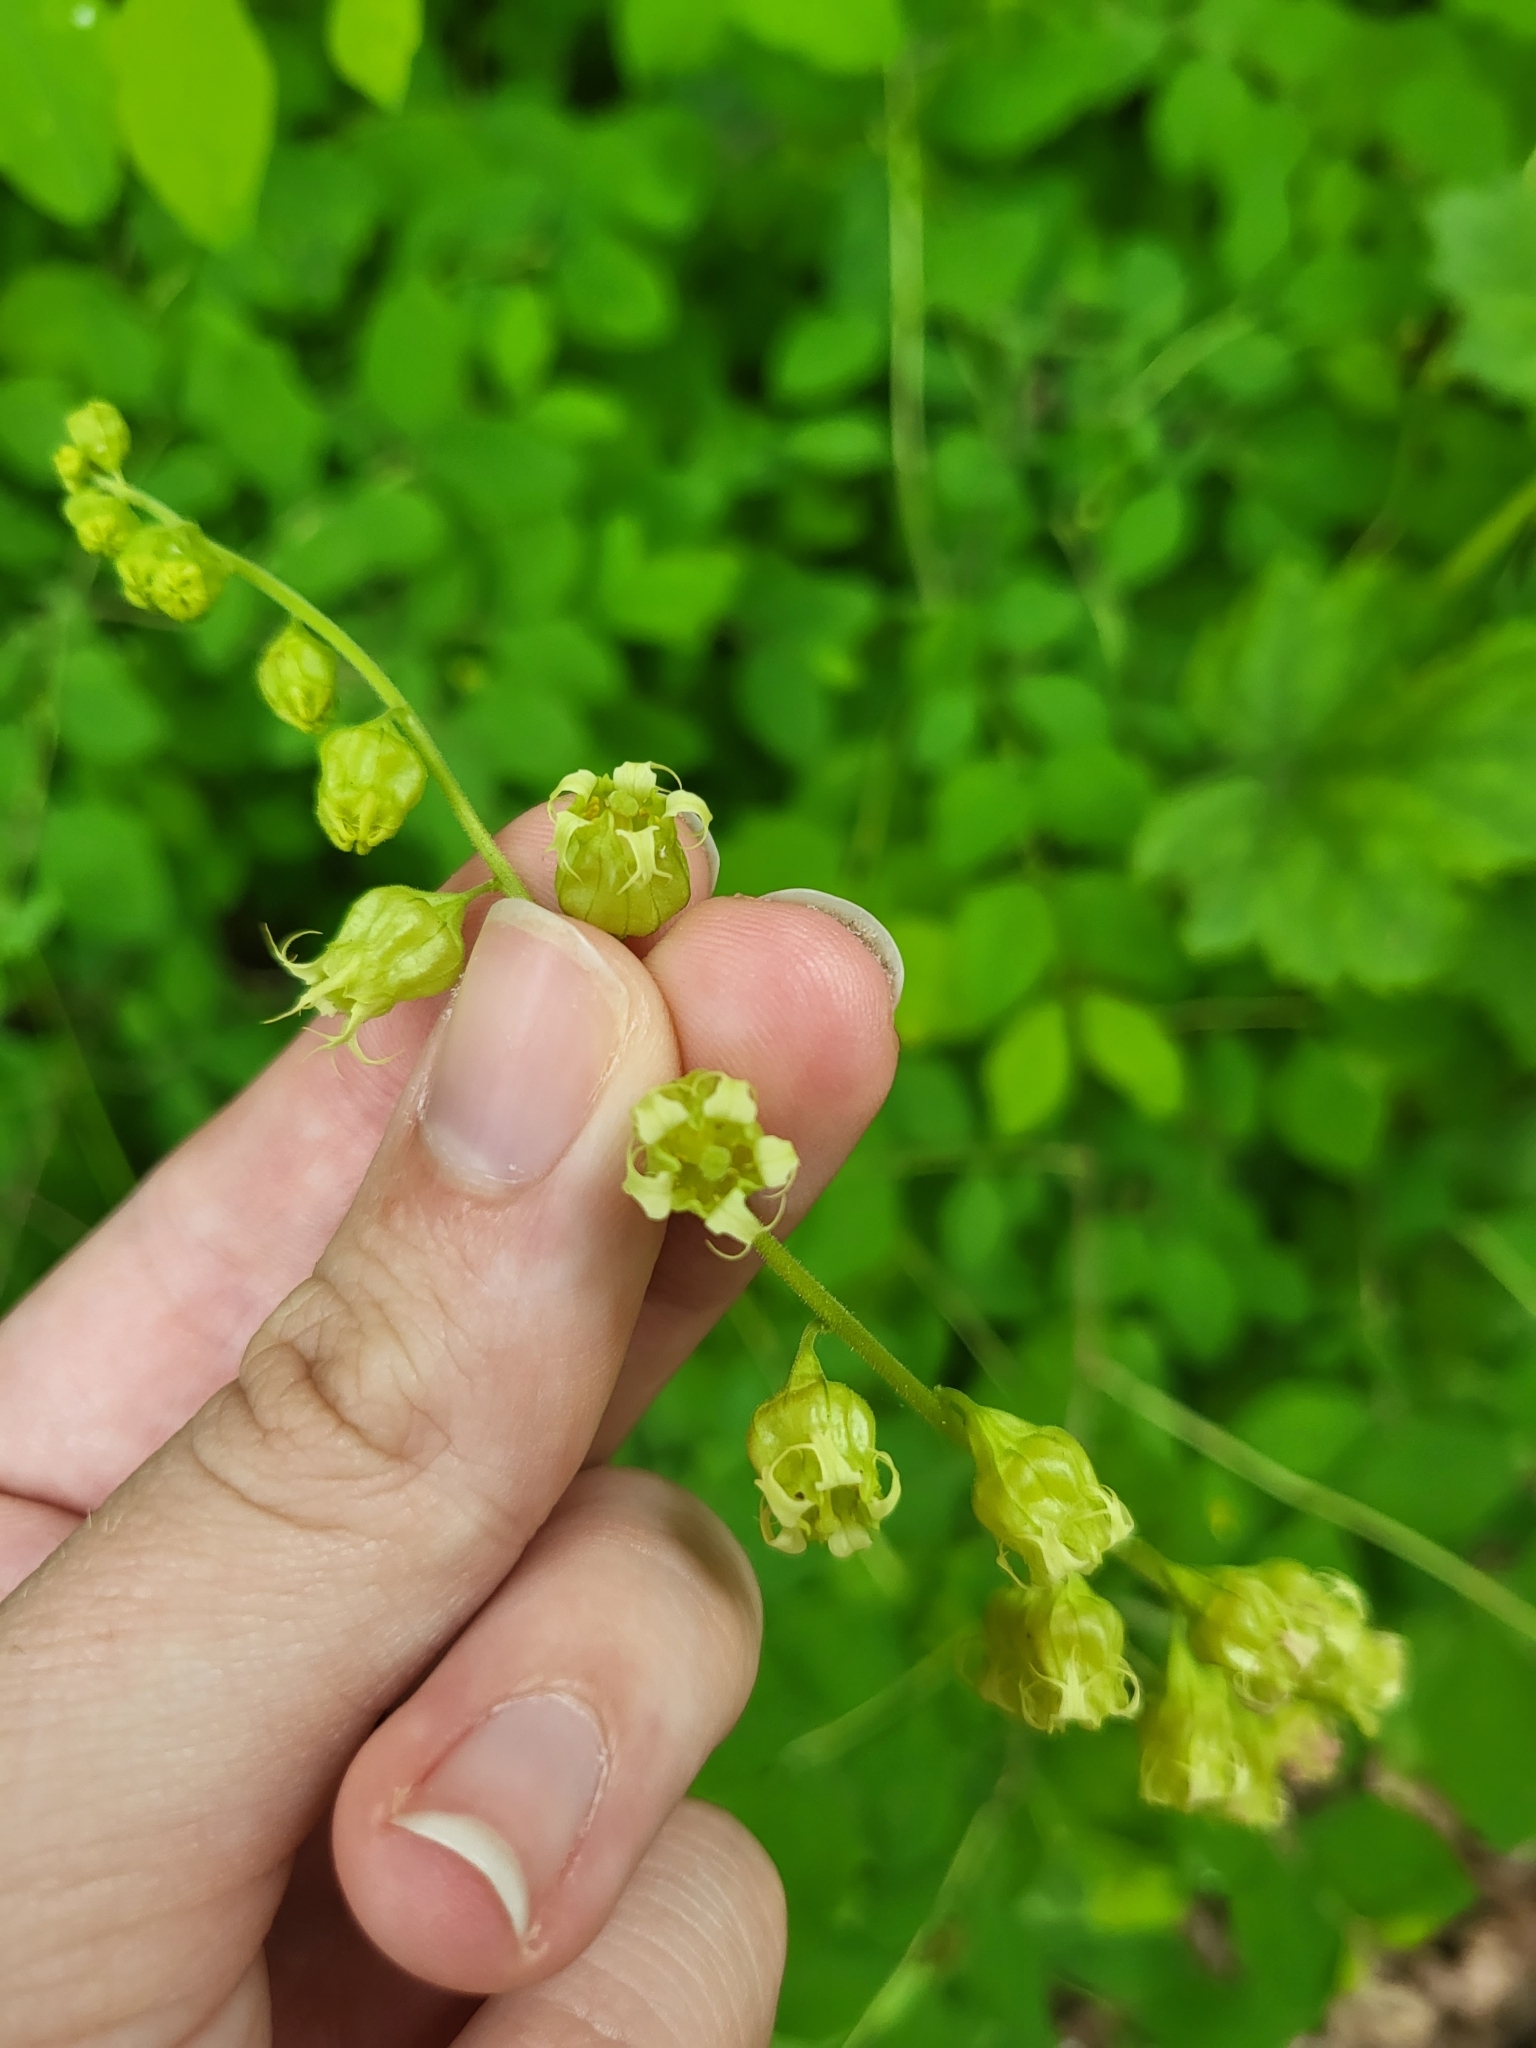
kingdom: Plantae
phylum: Tracheophyta
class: Magnoliopsida
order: Saxifragales
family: Saxifragaceae
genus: Tellima
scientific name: Tellima grandiflora
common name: Fringecups
